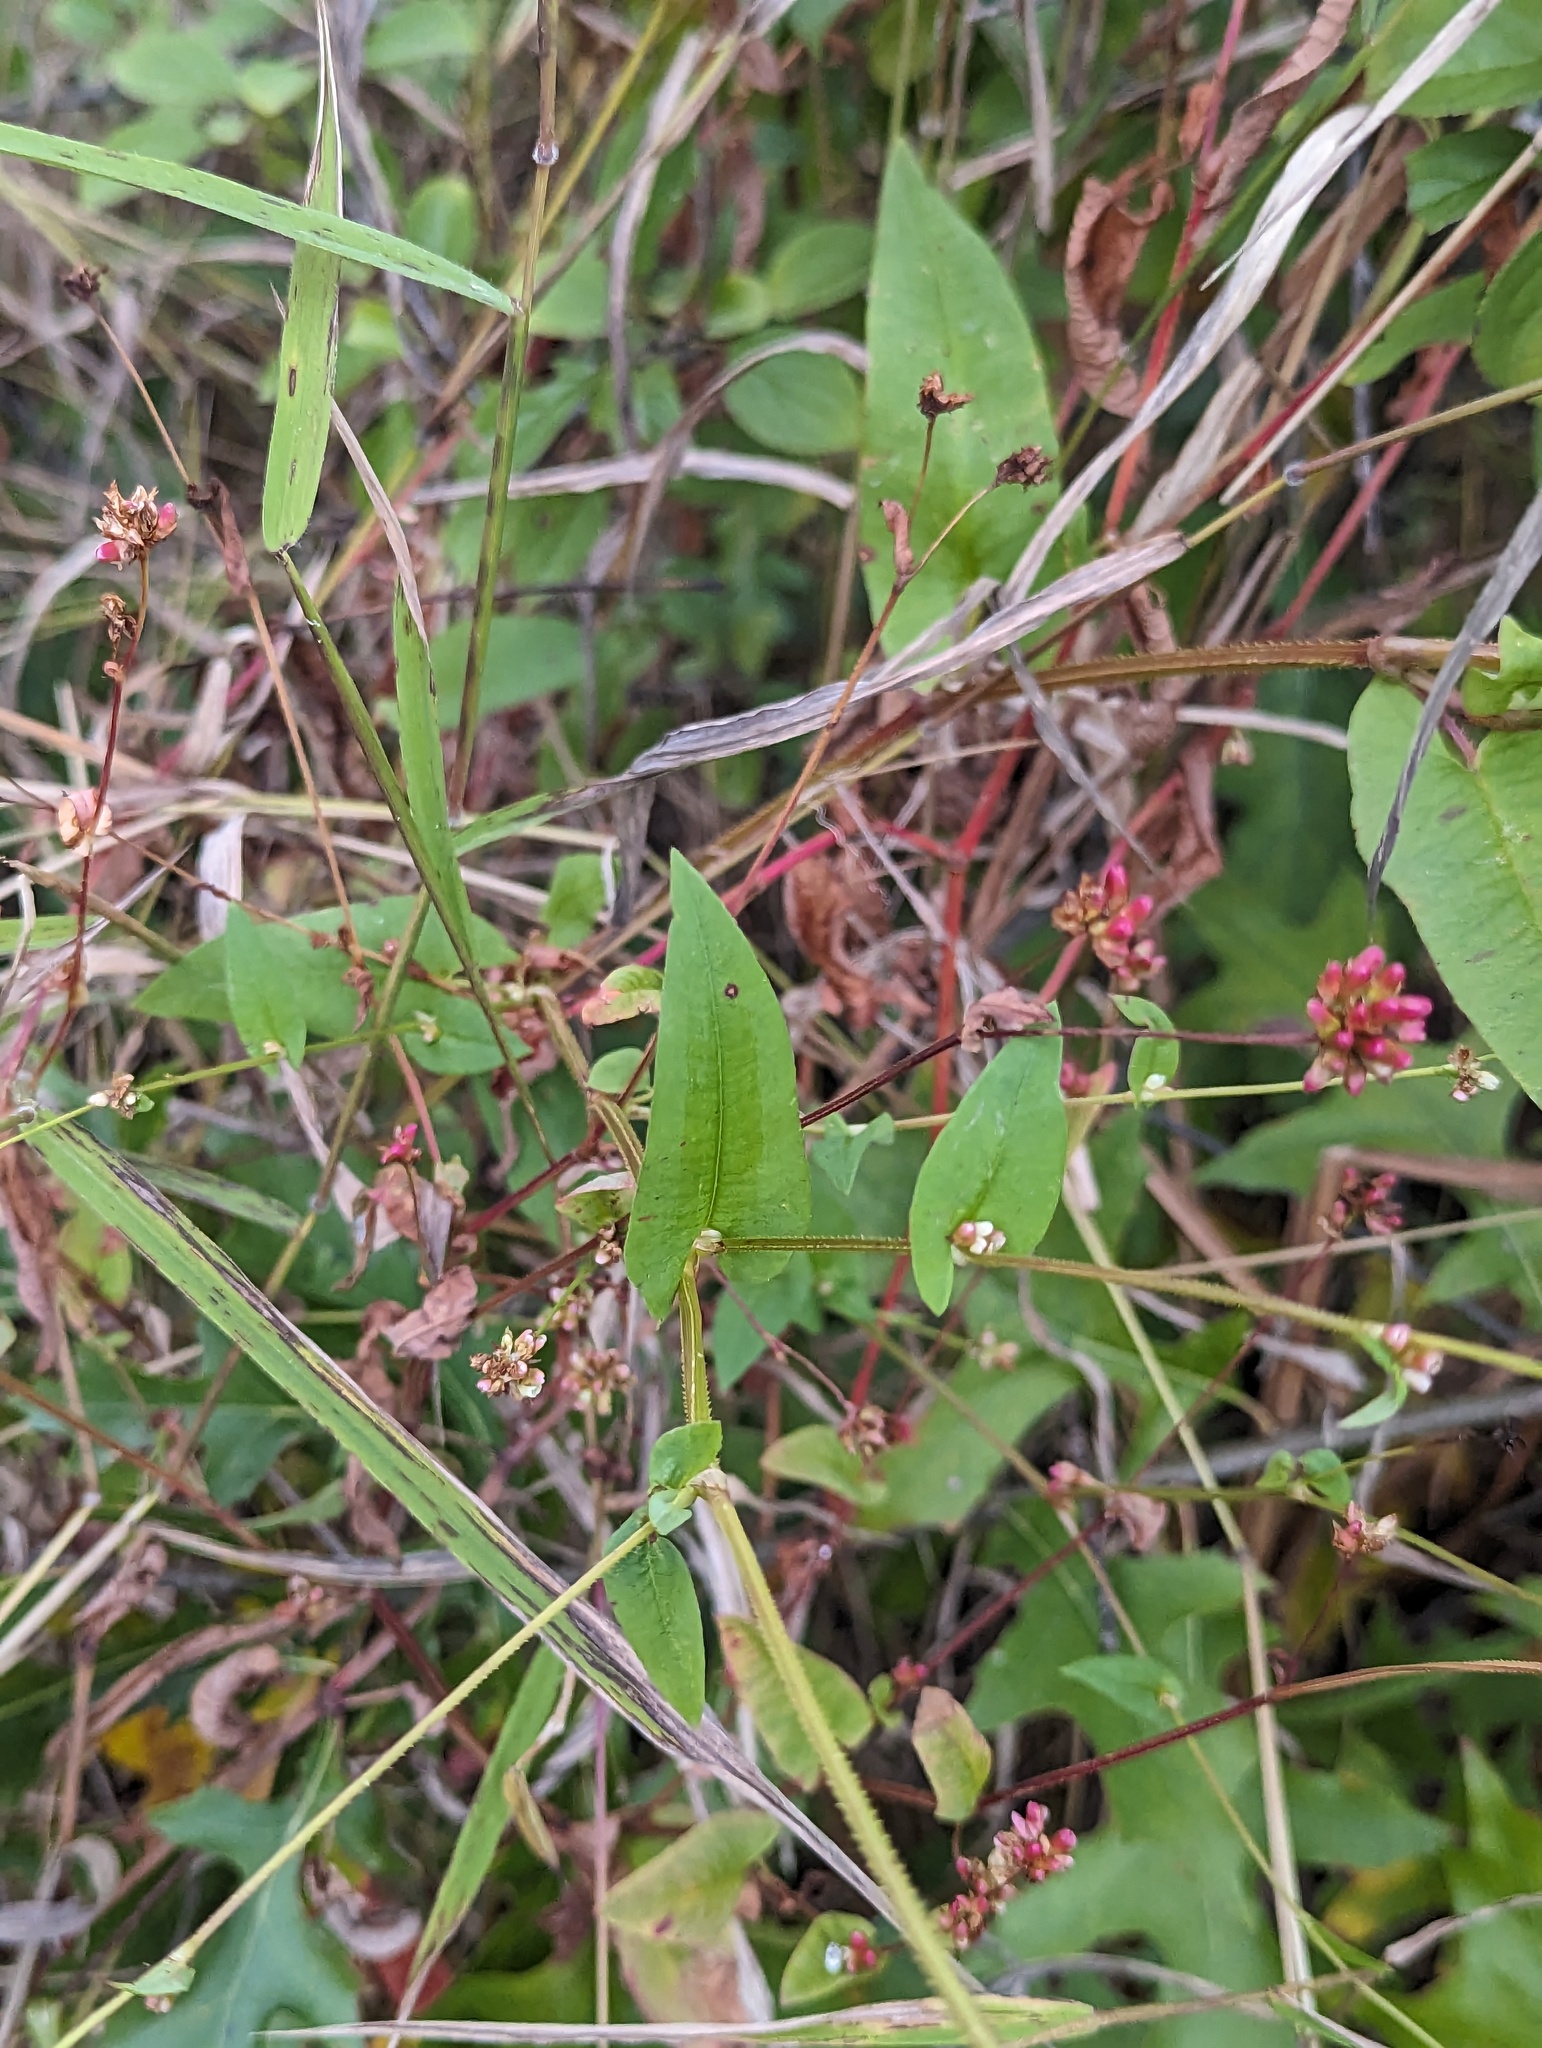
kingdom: Plantae
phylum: Tracheophyta
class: Magnoliopsida
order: Caryophyllales
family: Polygonaceae
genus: Persicaria
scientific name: Persicaria sagittata
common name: American tearthumb
